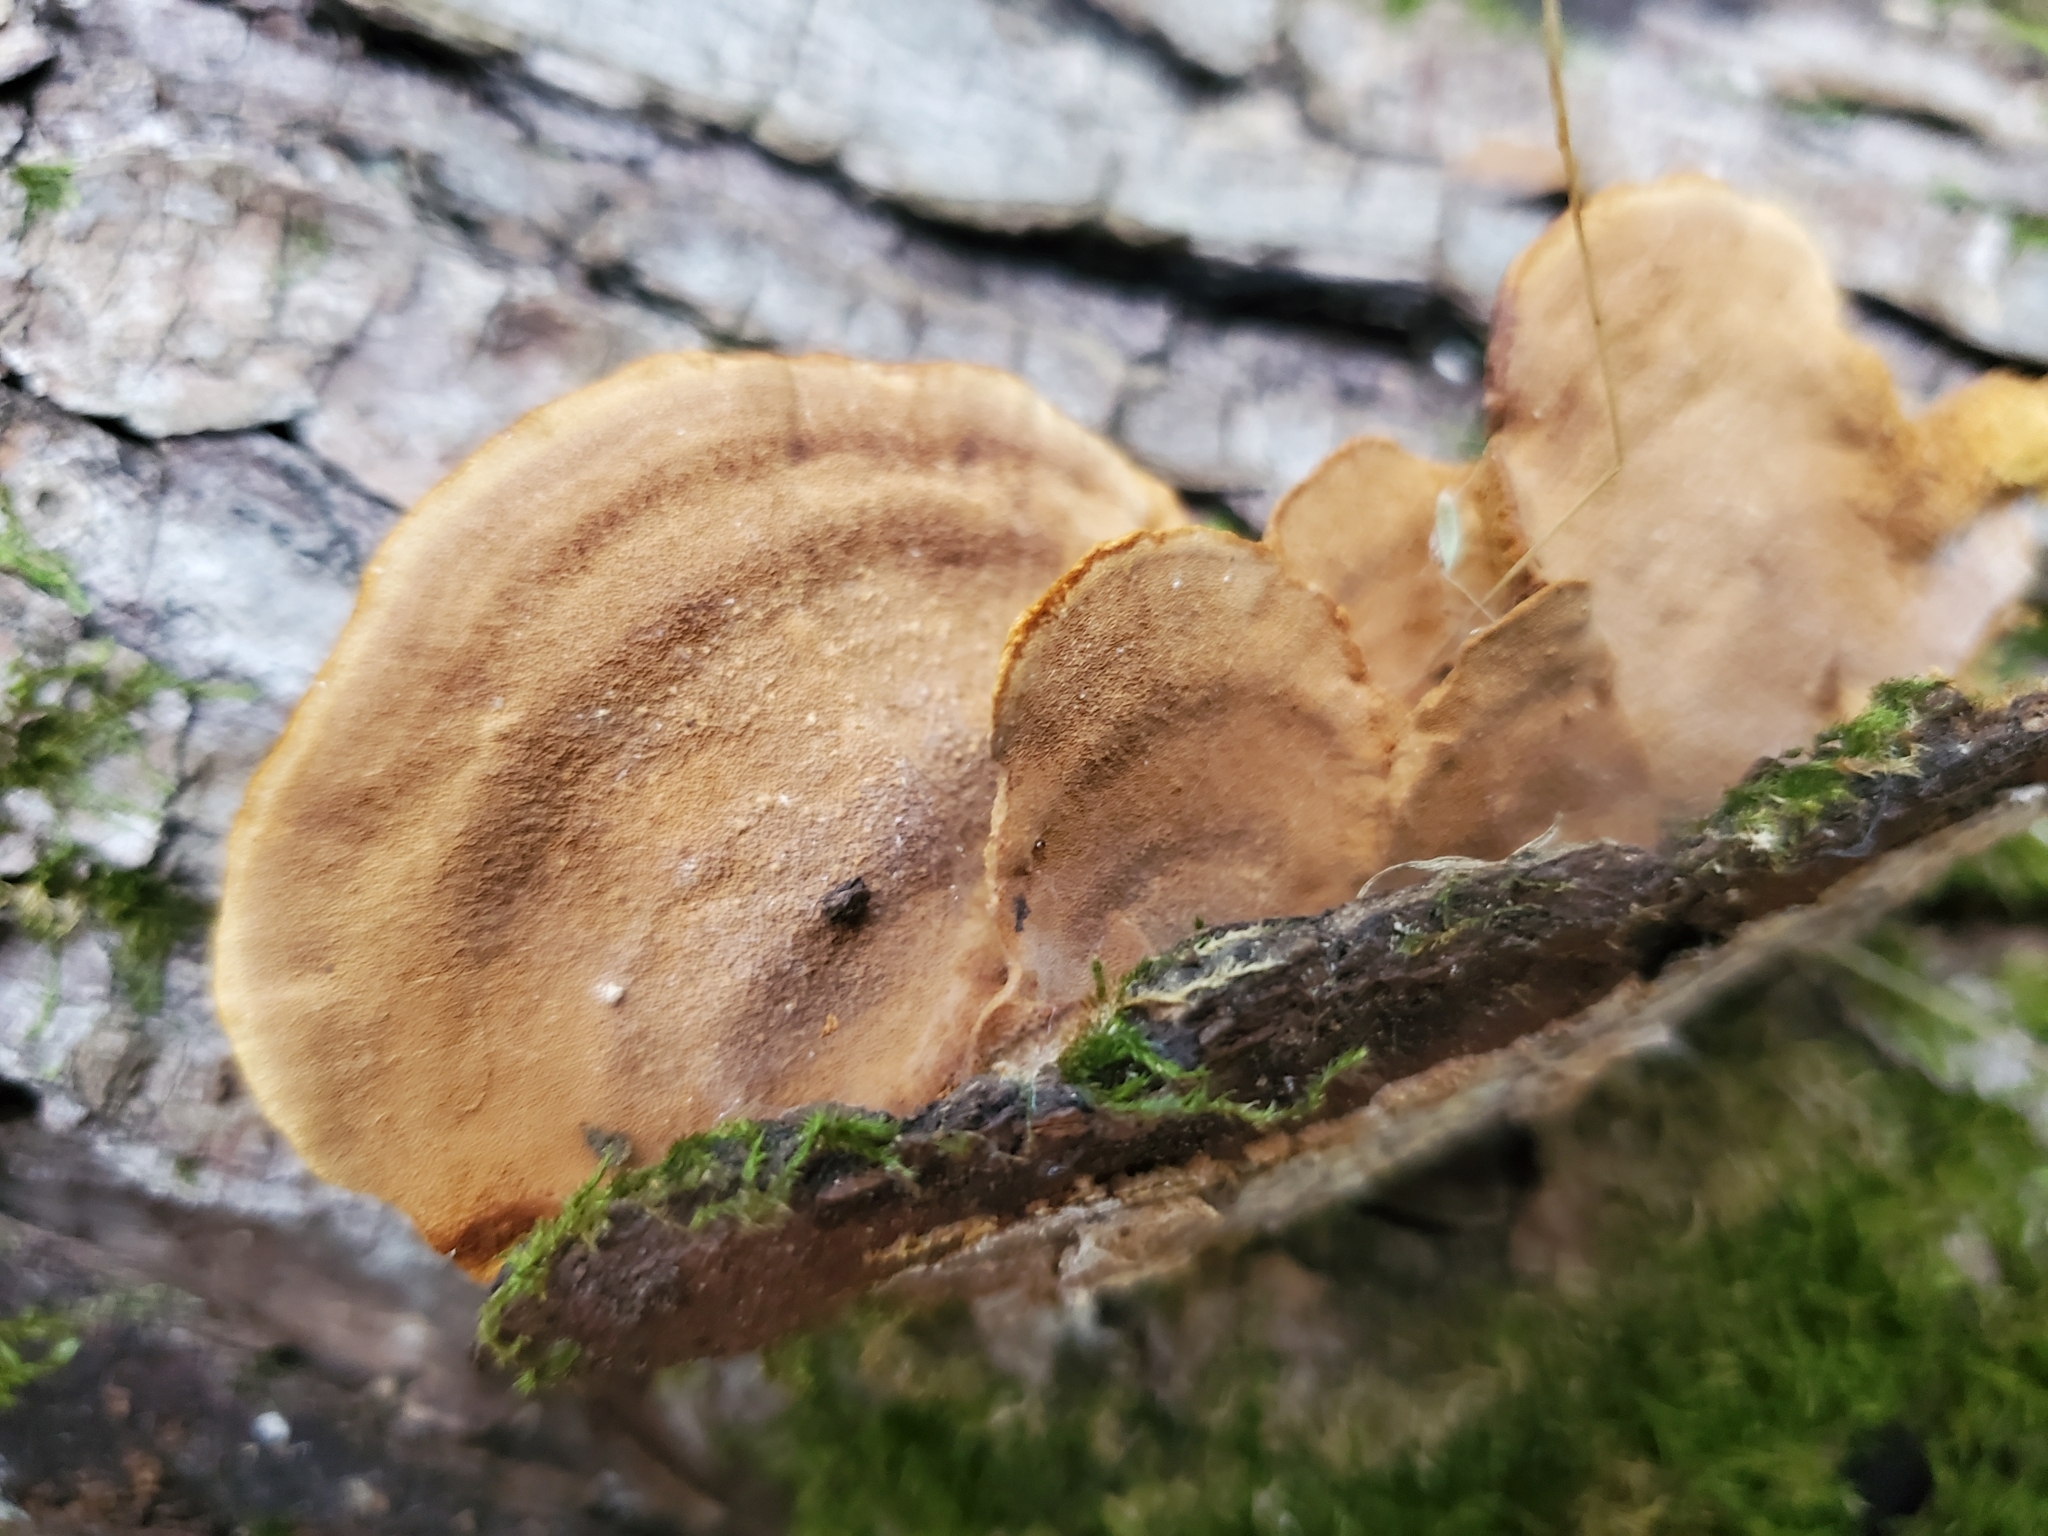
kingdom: Fungi
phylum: Basidiomycota
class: Agaricomycetes
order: Hymenochaetales
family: Hymenochaetaceae
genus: Phellinus
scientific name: Phellinus gilvus
